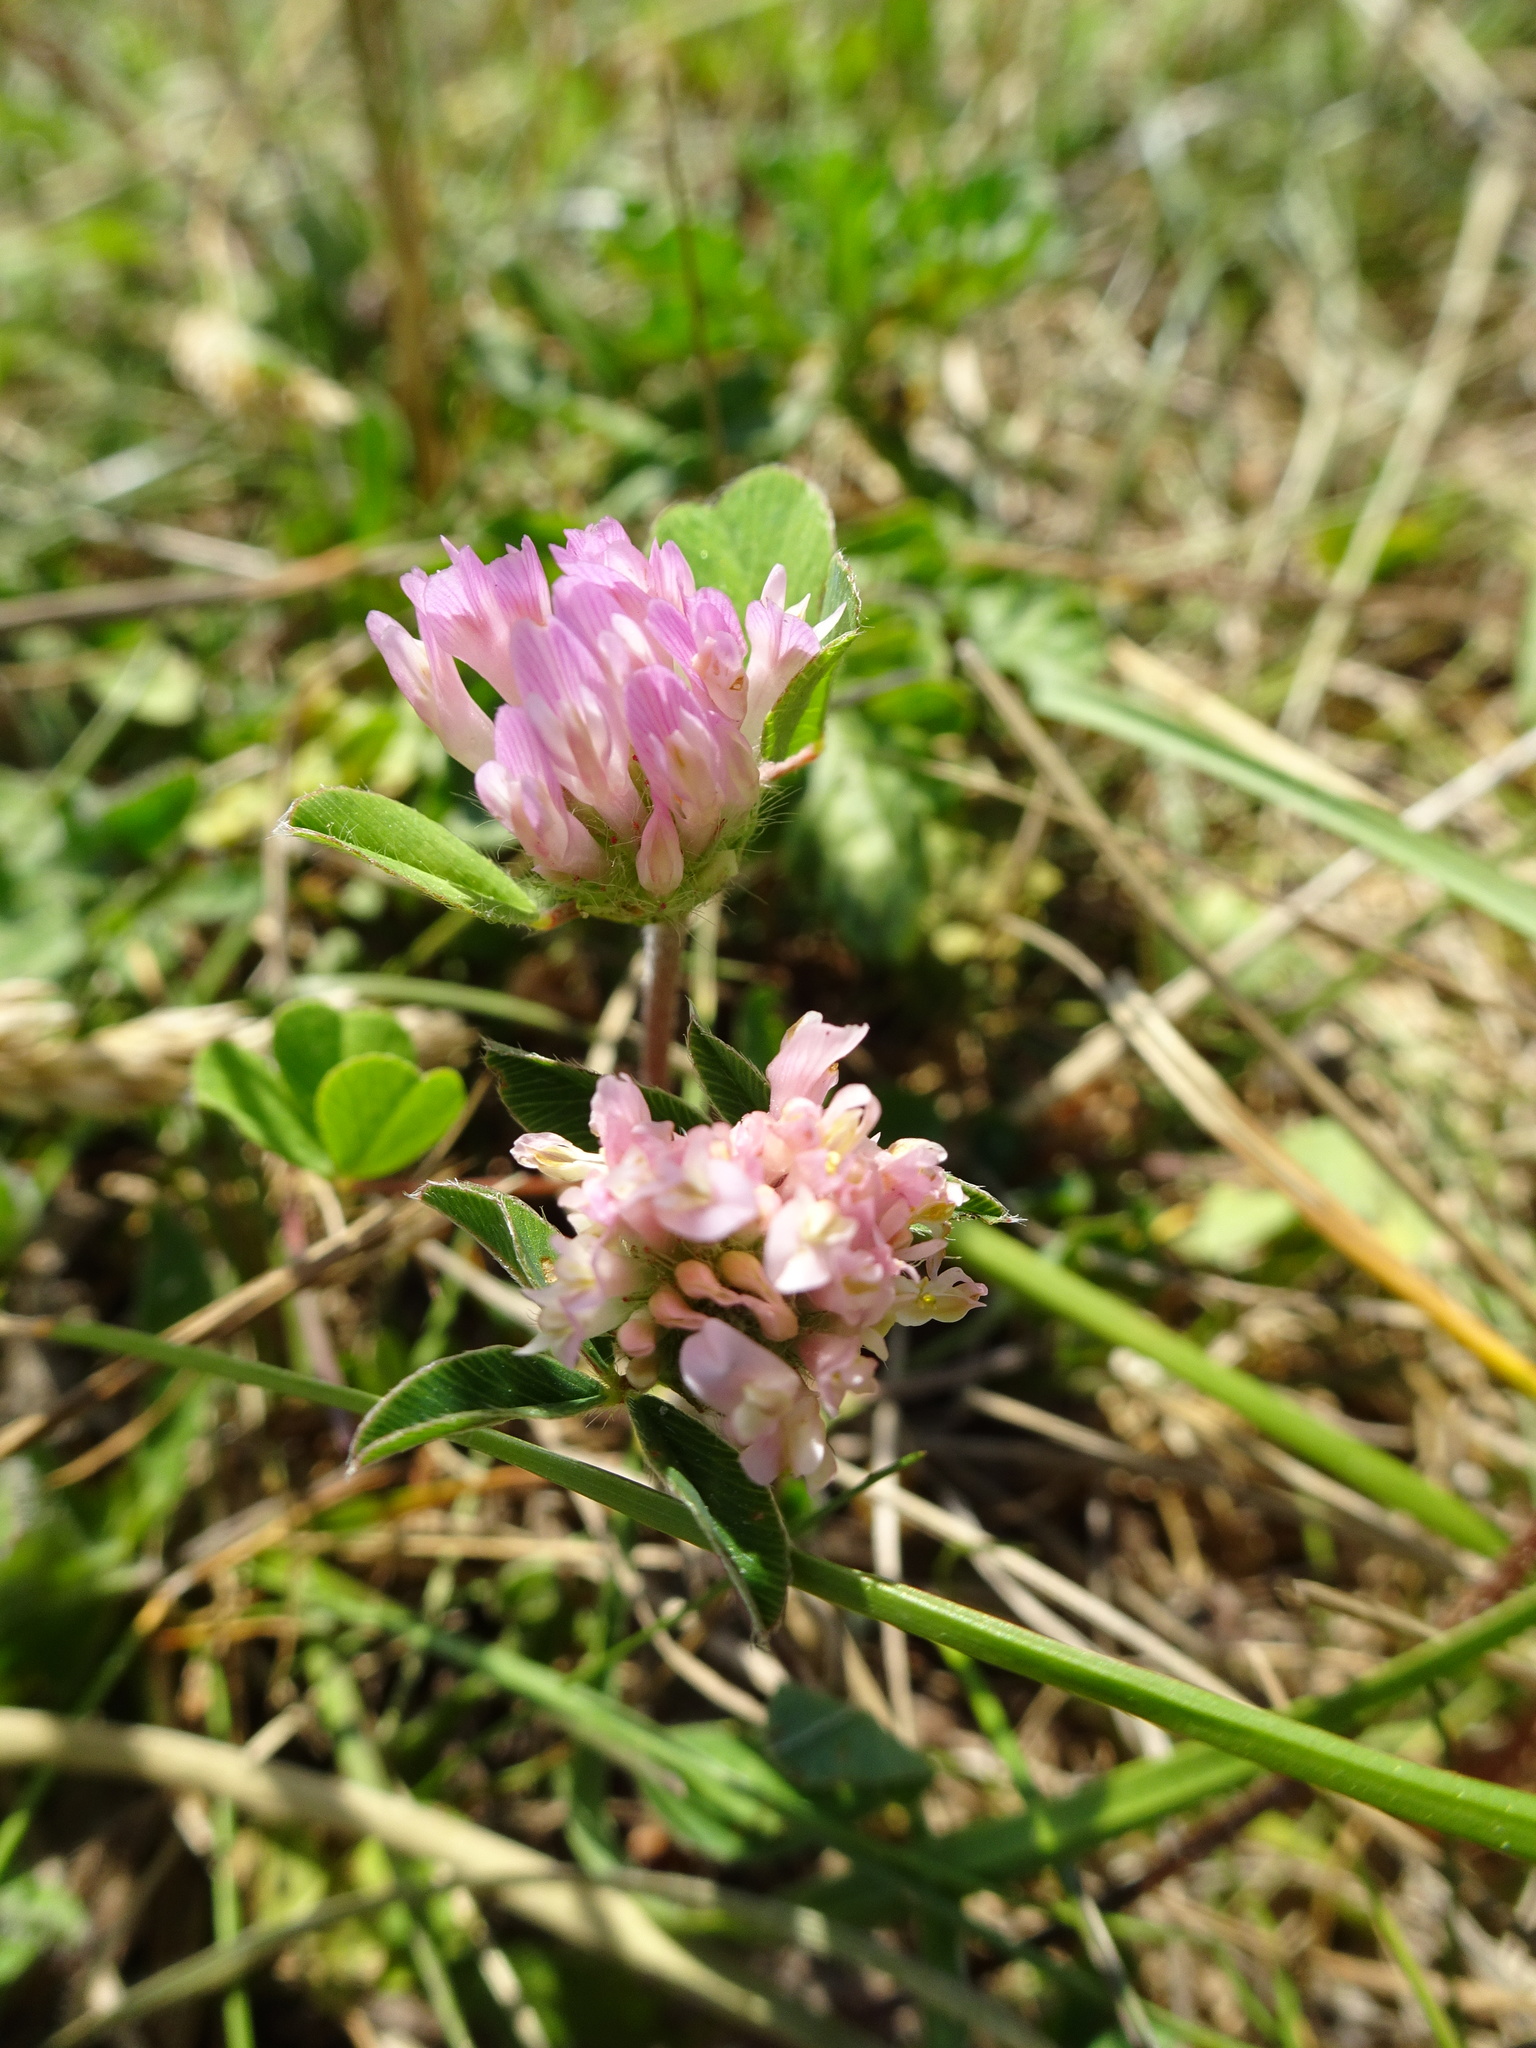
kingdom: Plantae
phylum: Tracheophyta
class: Magnoliopsida
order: Fabales
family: Fabaceae
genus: Trifolium
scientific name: Trifolium pratense
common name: Red clover
